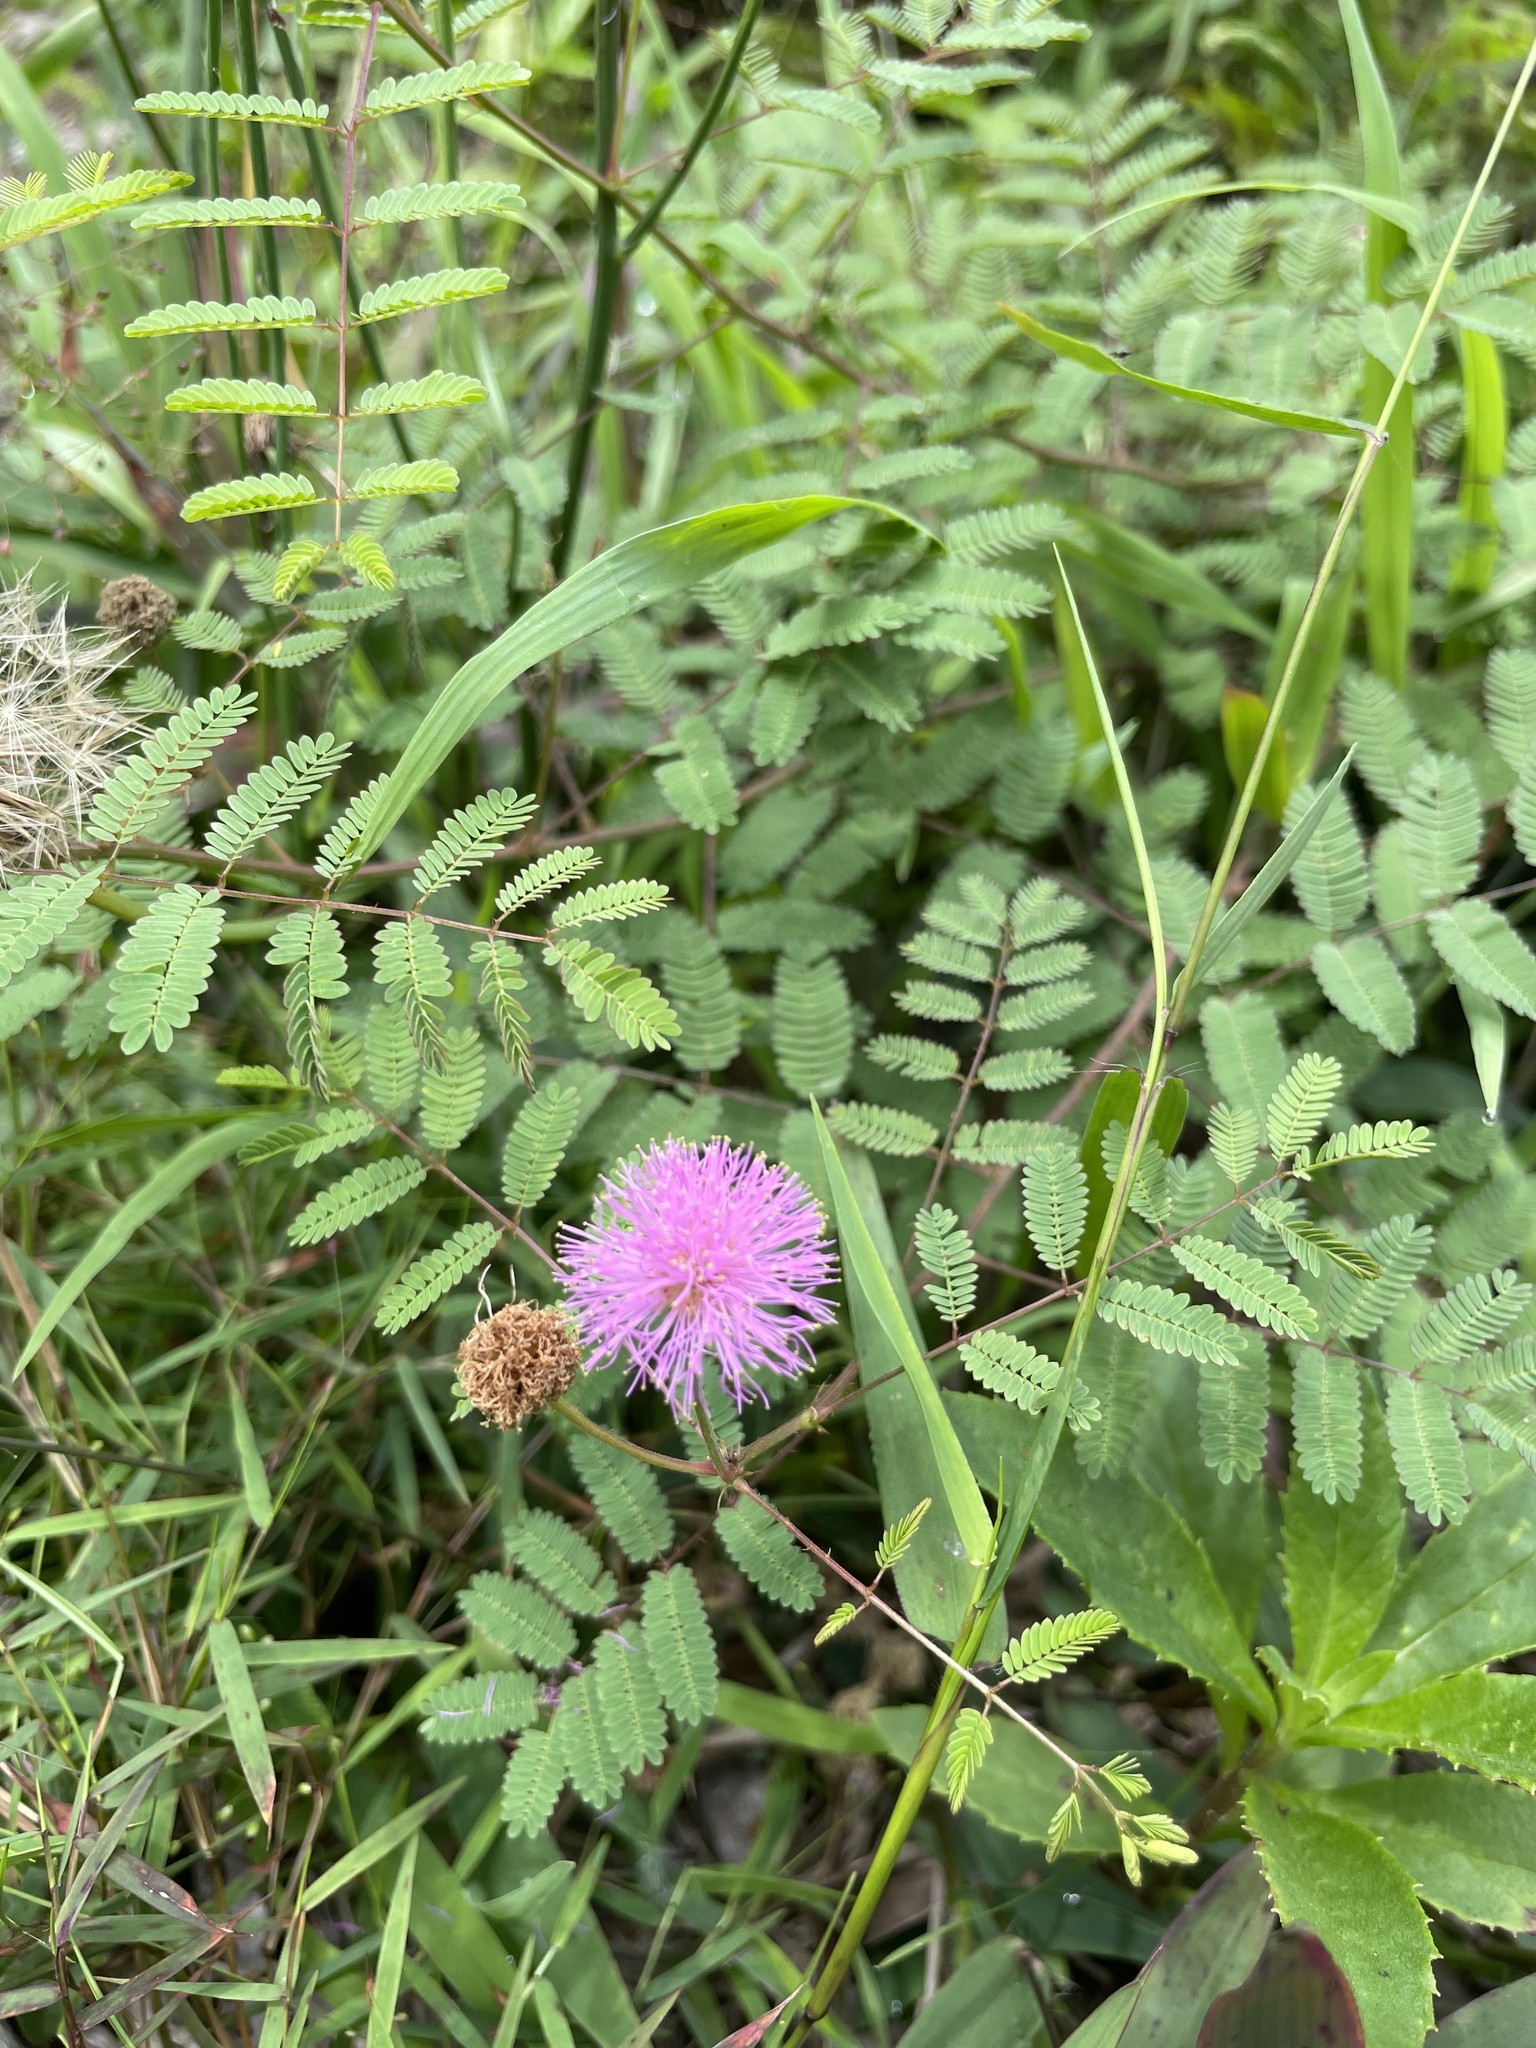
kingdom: Plantae
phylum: Tracheophyta
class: Magnoliopsida
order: Fabales
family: Fabaceae
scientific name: Fabaceae
